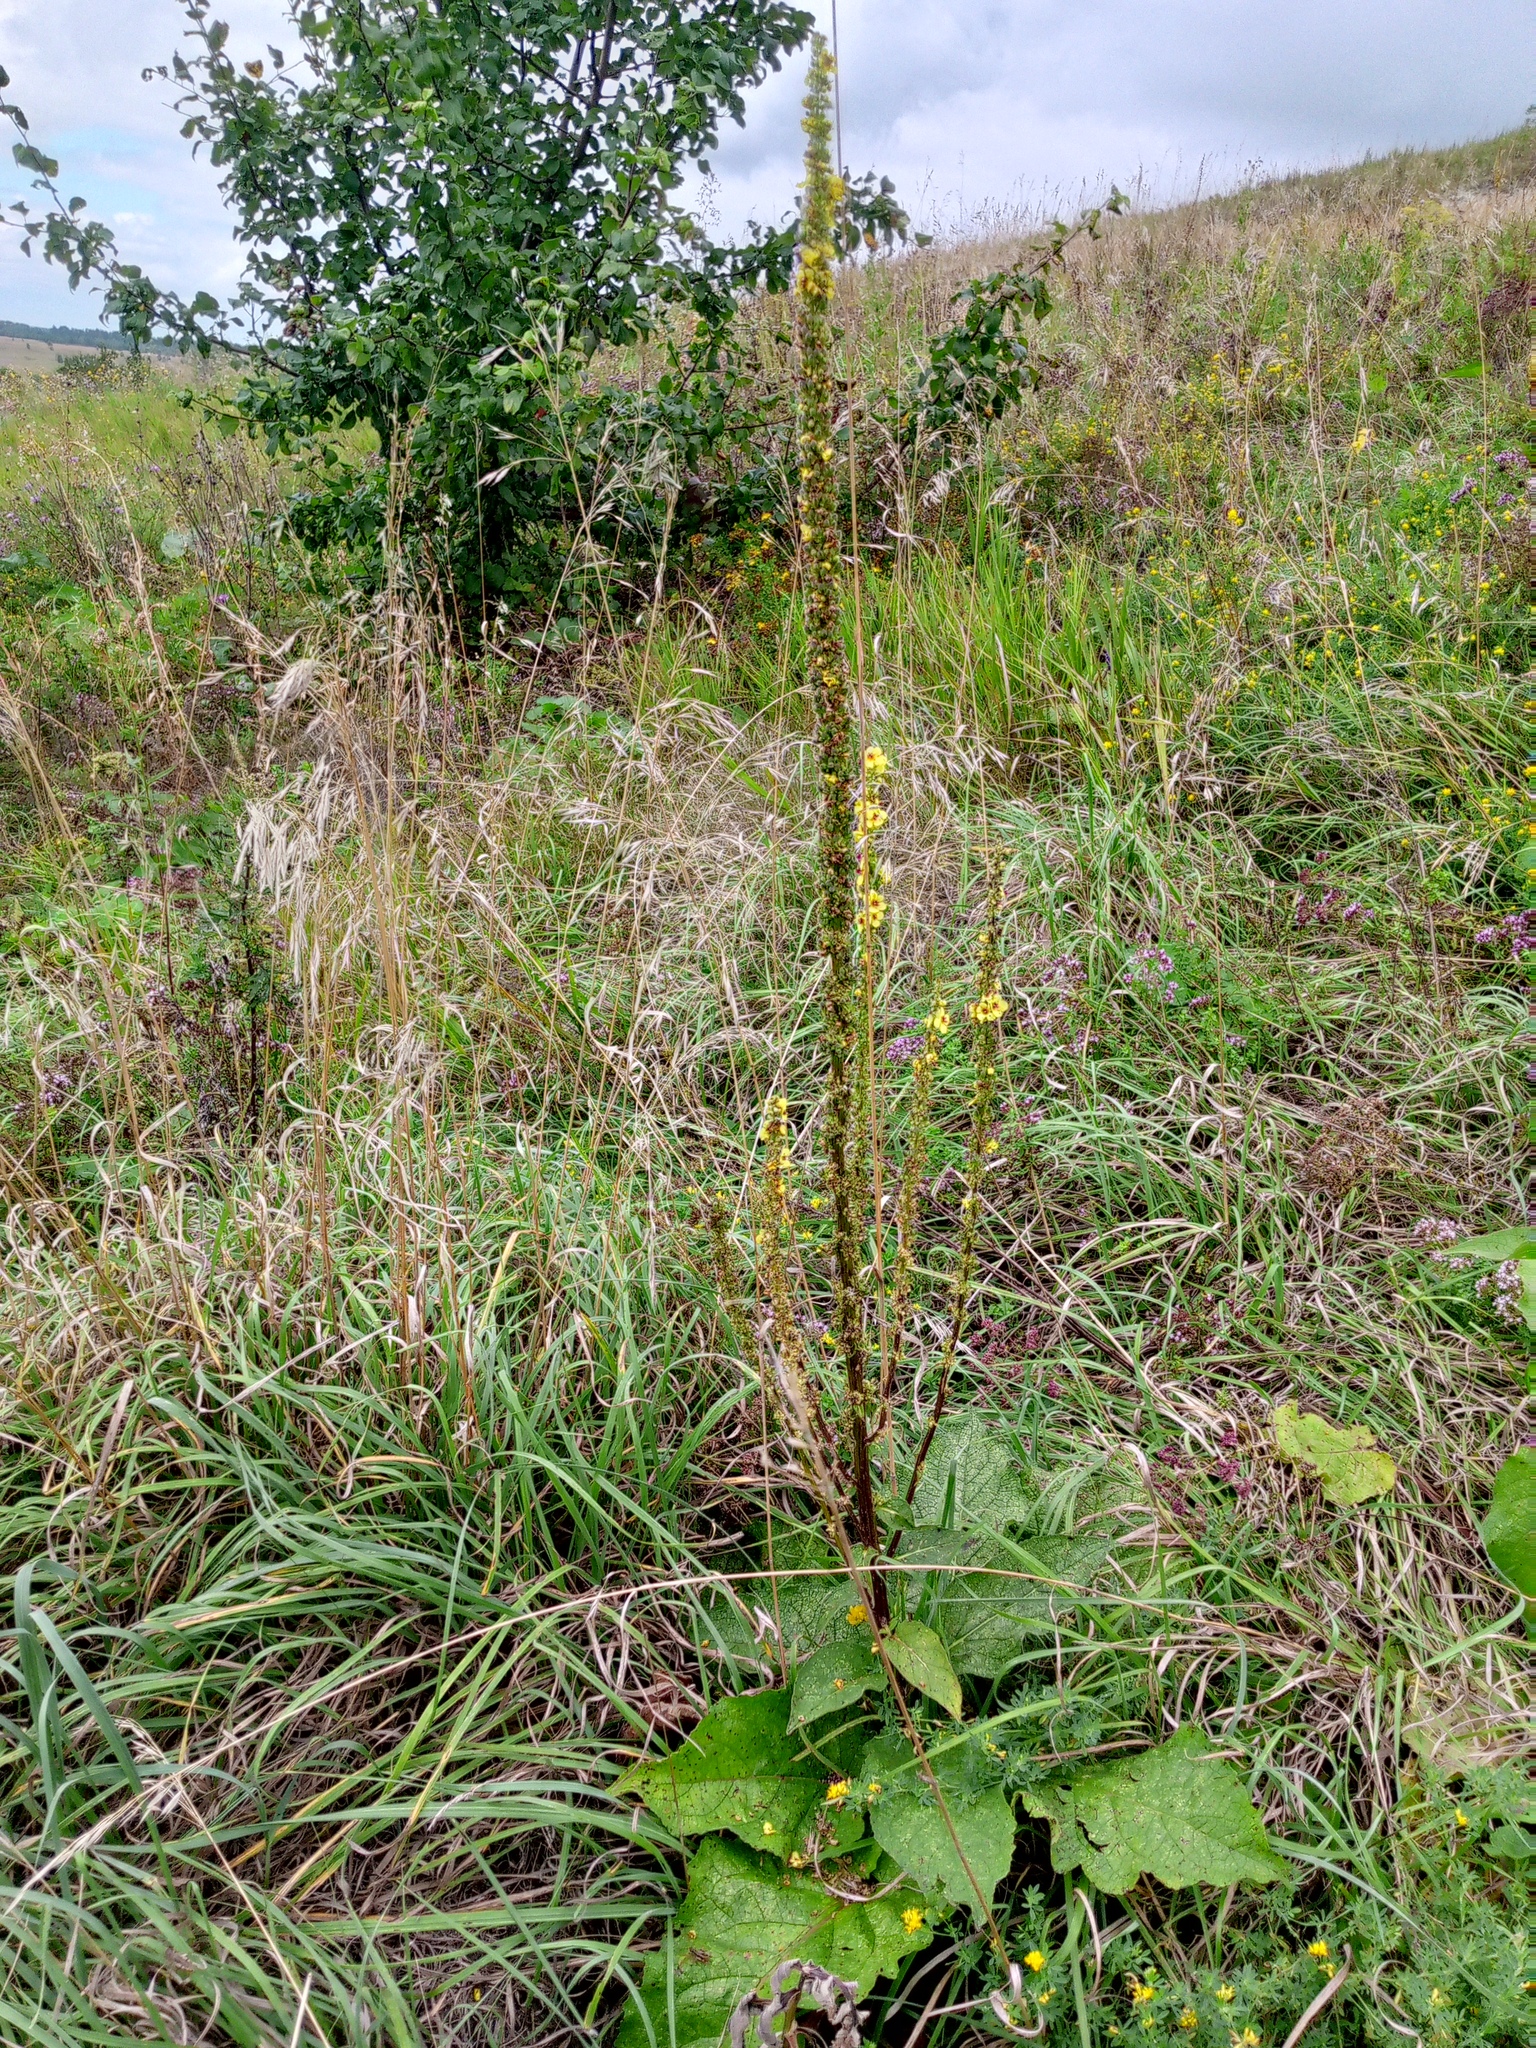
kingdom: Plantae
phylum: Tracheophyta
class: Magnoliopsida
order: Lamiales
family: Scrophulariaceae
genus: Verbascum
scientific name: Verbascum nigrum
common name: Dark mullein
